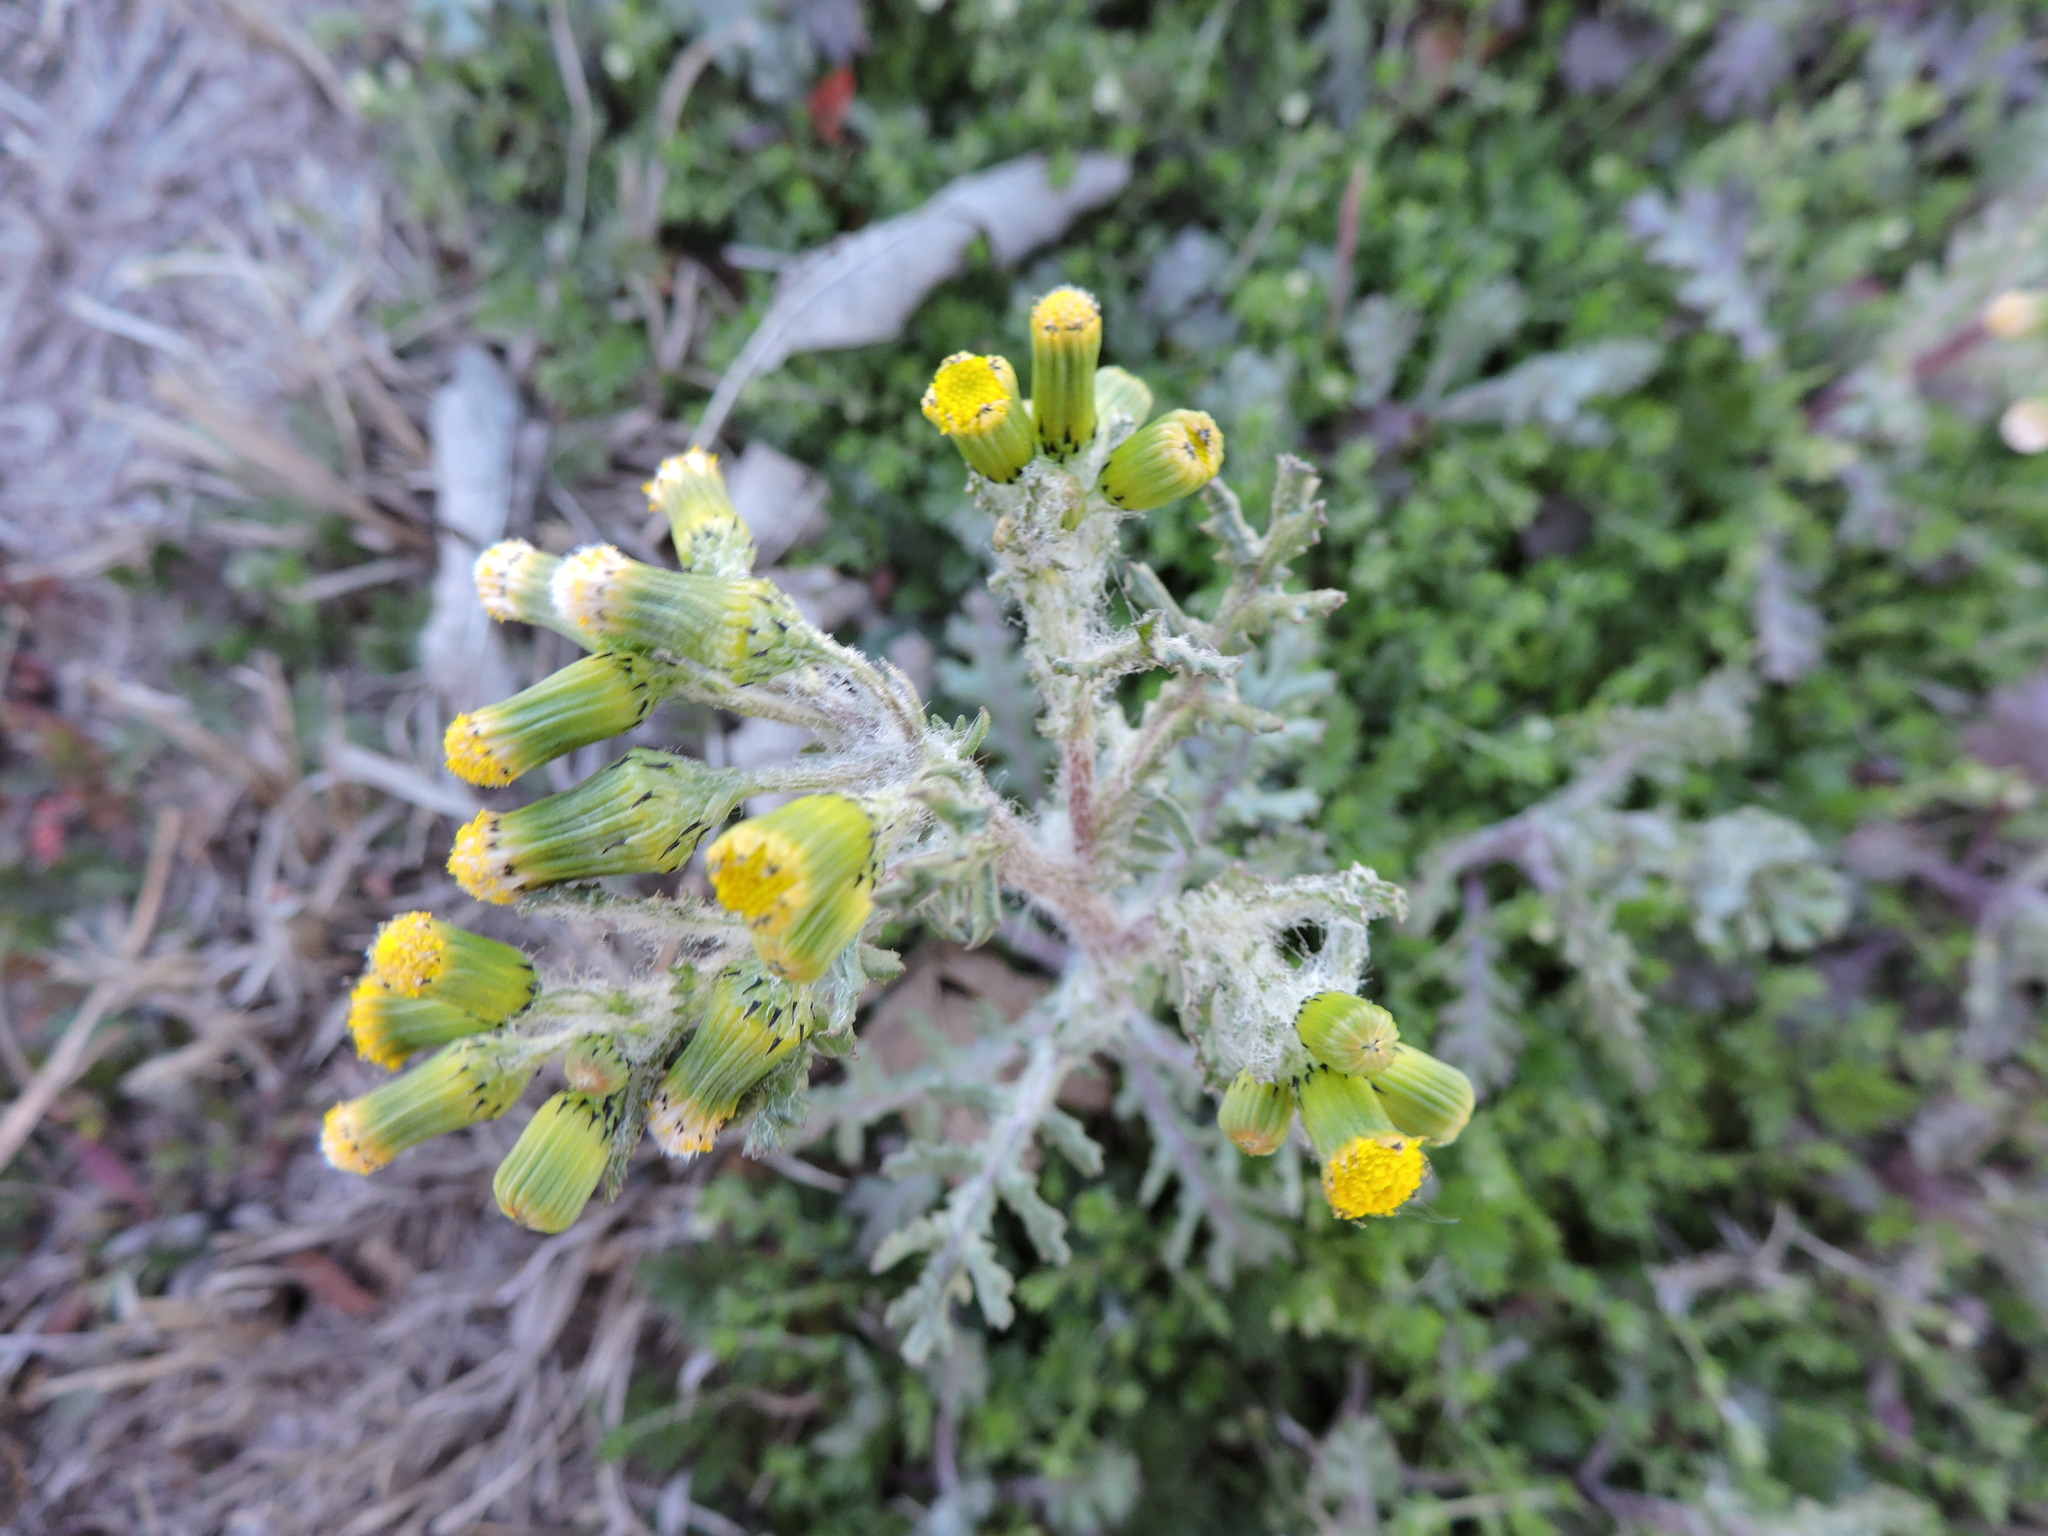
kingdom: Plantae
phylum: Tracheophyta
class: Magnoliopsida
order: Asterales
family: Asteraceae
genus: Senecio
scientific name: Senecio vulgaris
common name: Old-man-in-the-spring
